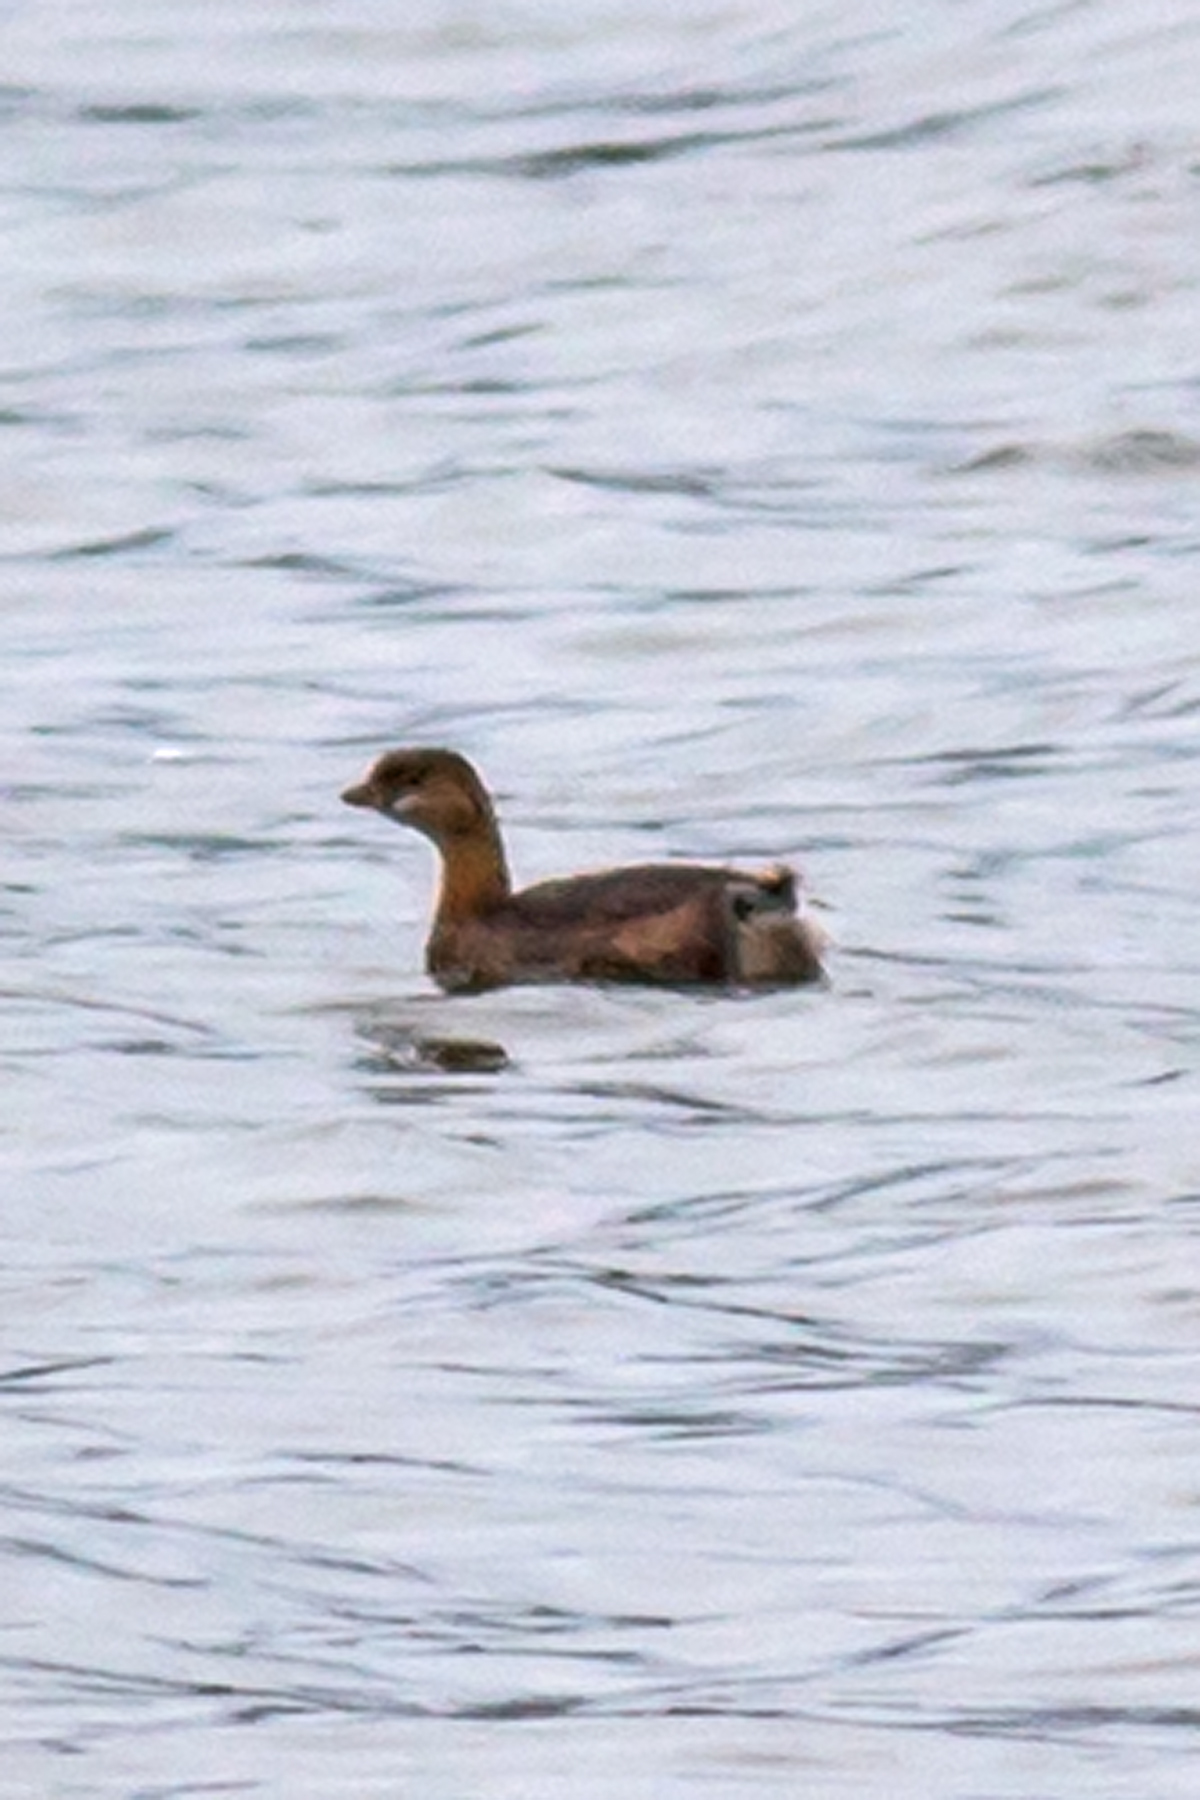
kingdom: Animalia
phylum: Chordata
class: Aves
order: Podicipediformes
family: Podicipedidae
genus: Podilymbus
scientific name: Podilymbus podiceps
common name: Pied-billed grebe
